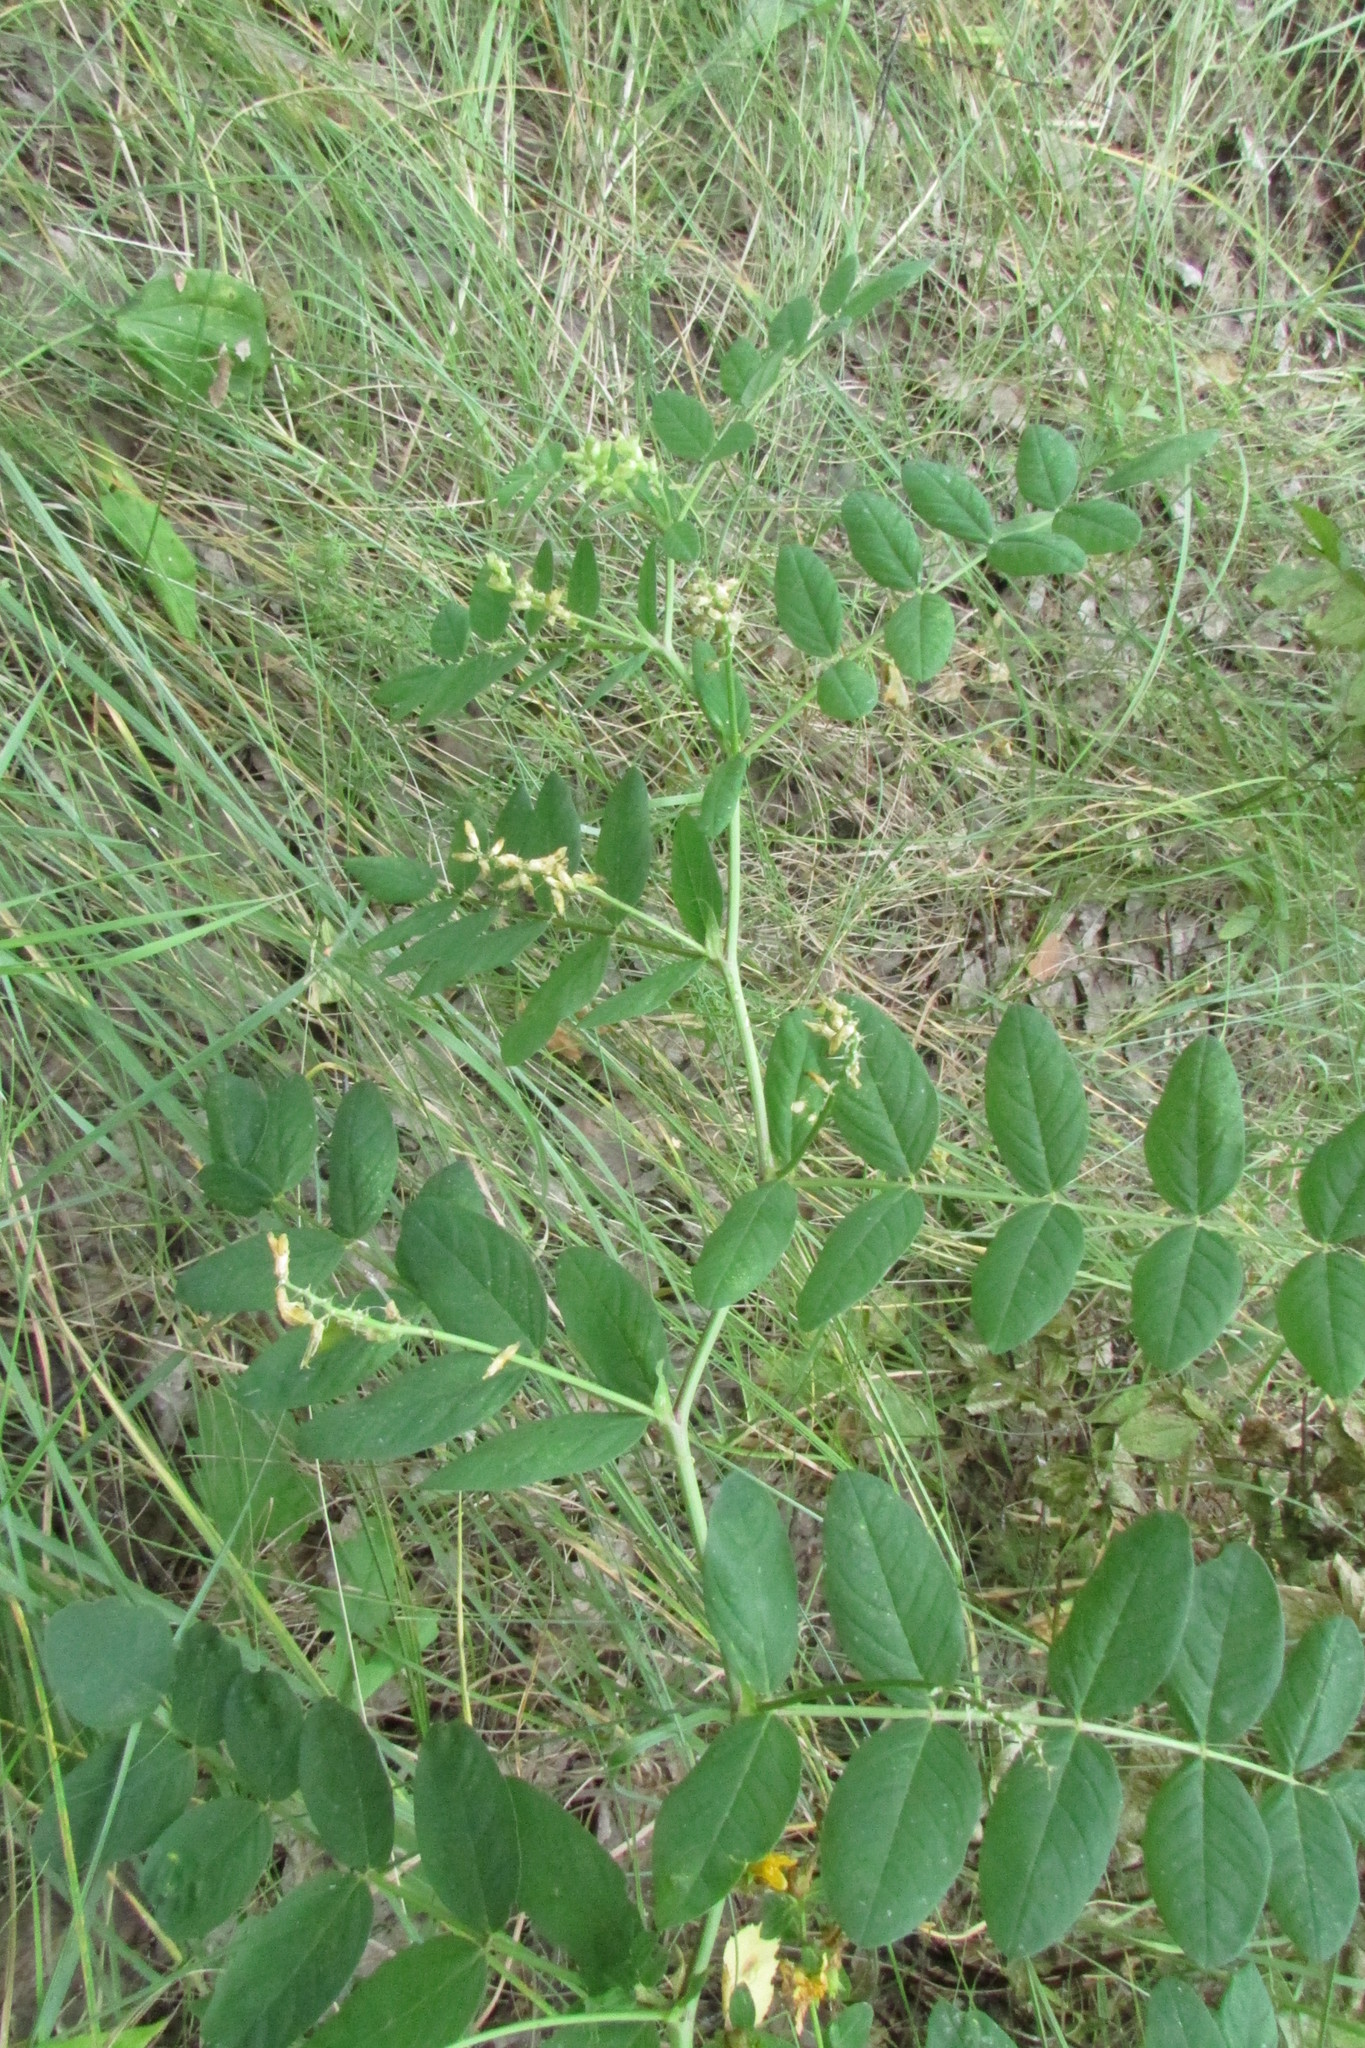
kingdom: Plantae
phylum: Tracheophyta
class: Magnoliopsida
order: Fabales
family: Fabaceae
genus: Astragalus
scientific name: Astragalus glycyphyllos
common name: Wild liquorice
